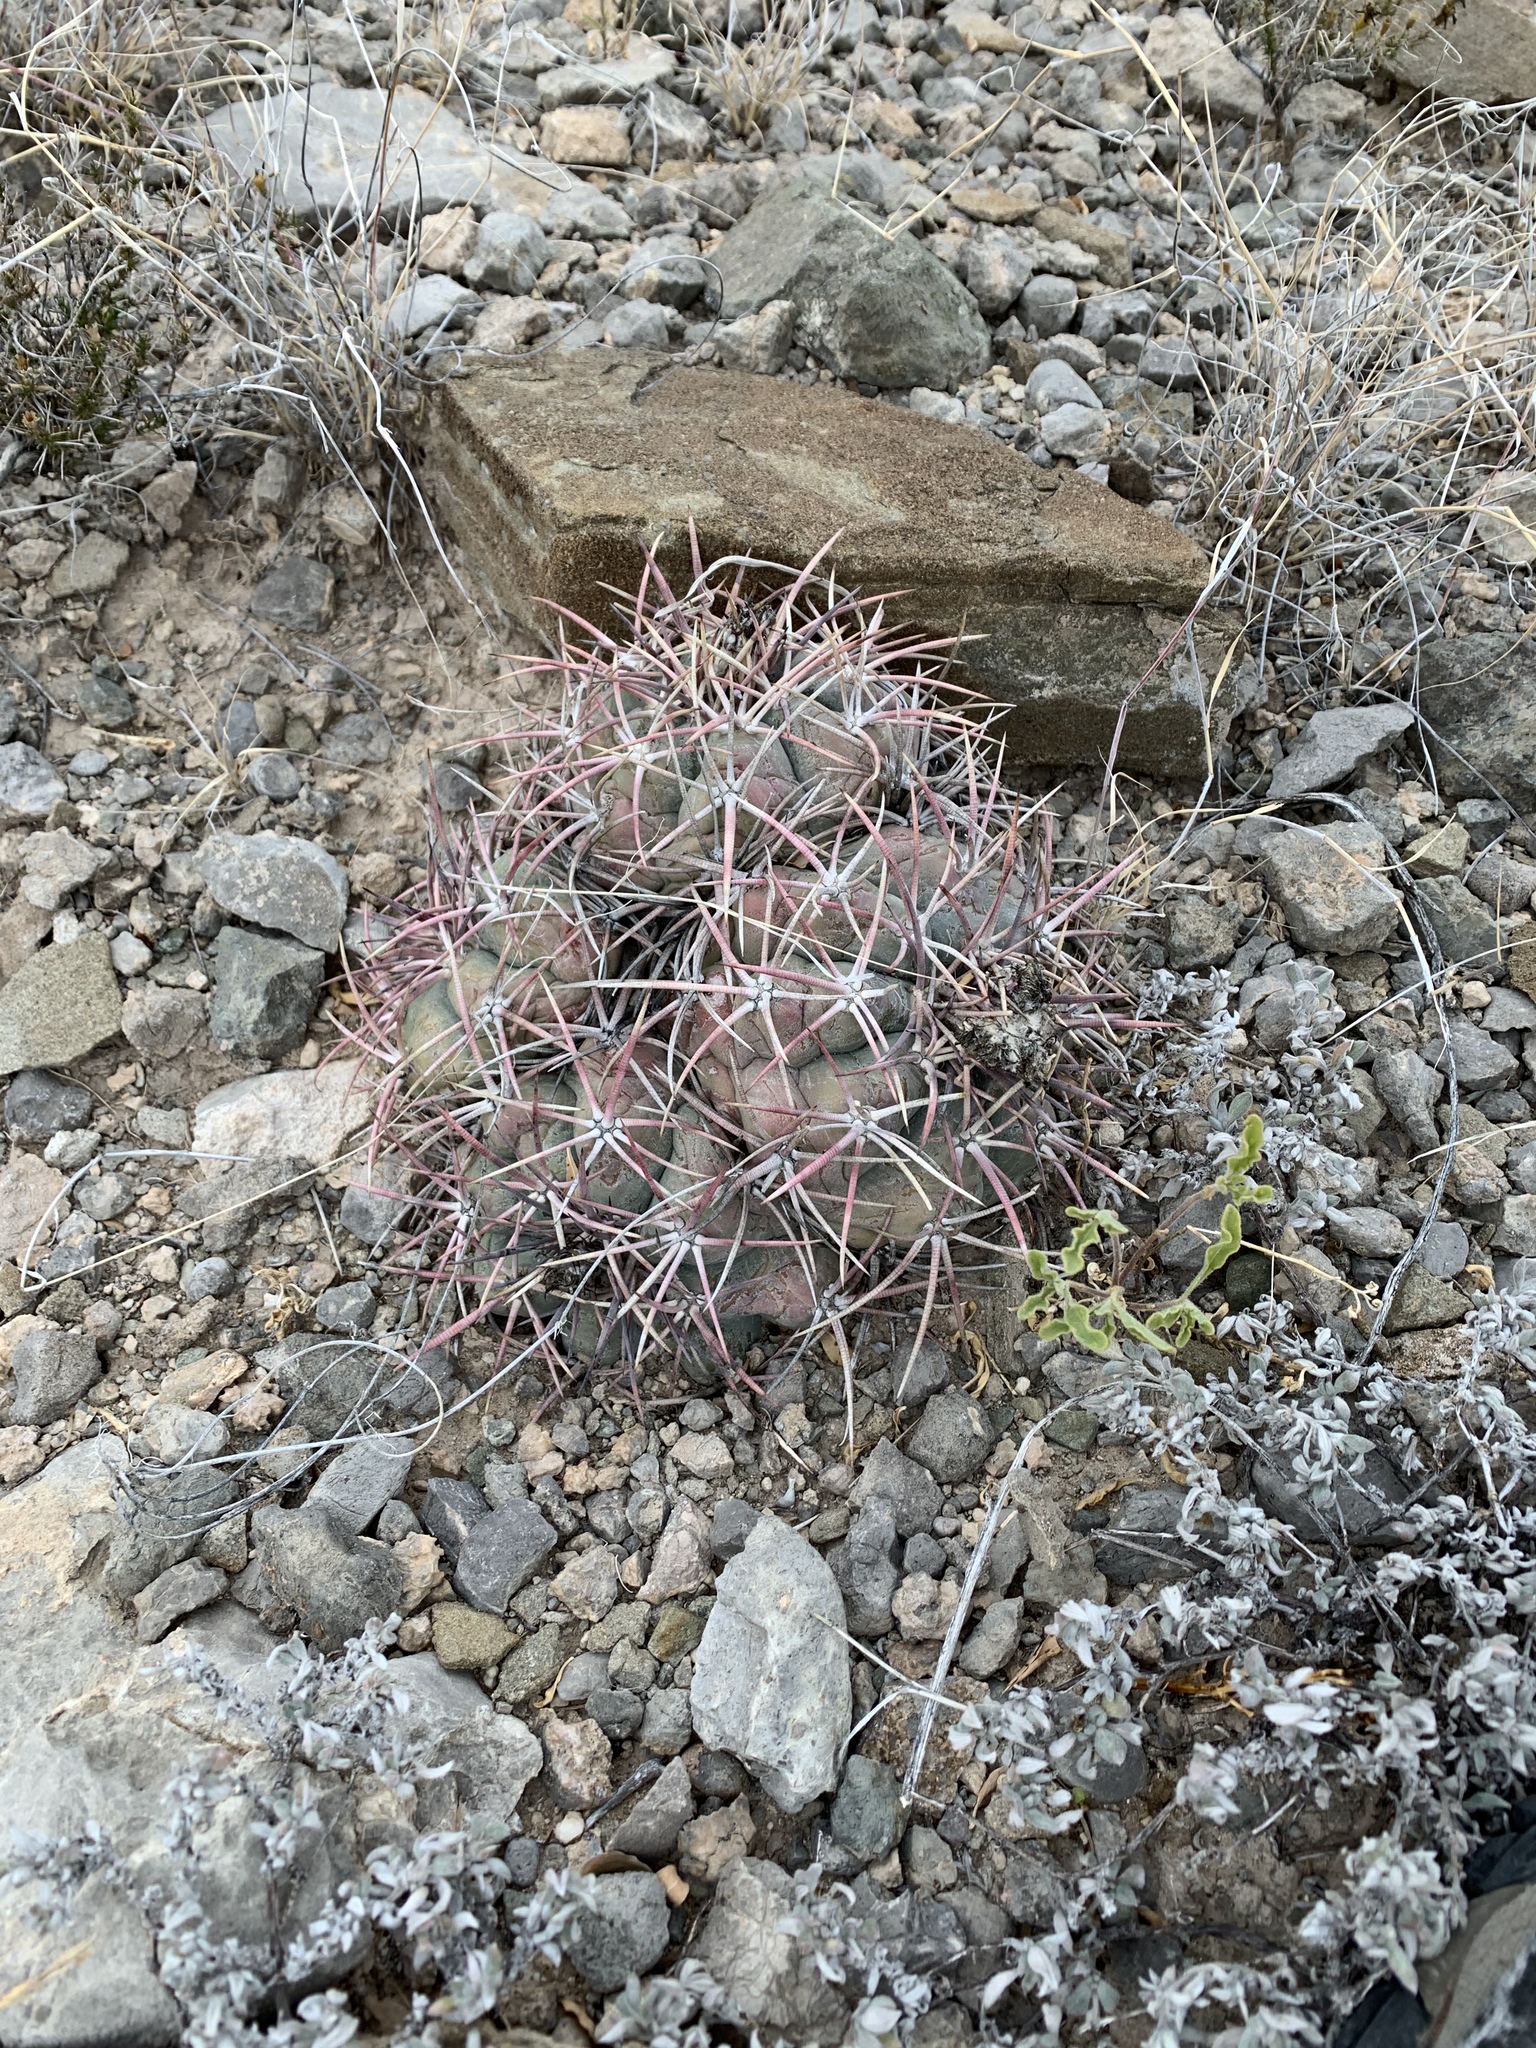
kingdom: Plantae
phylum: Tracheophyta
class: Magnoliopsida
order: Caryophyllales
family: Cactaceae
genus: Echinocactus
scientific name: Echinocactus horizonthalonius
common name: Devilshead
